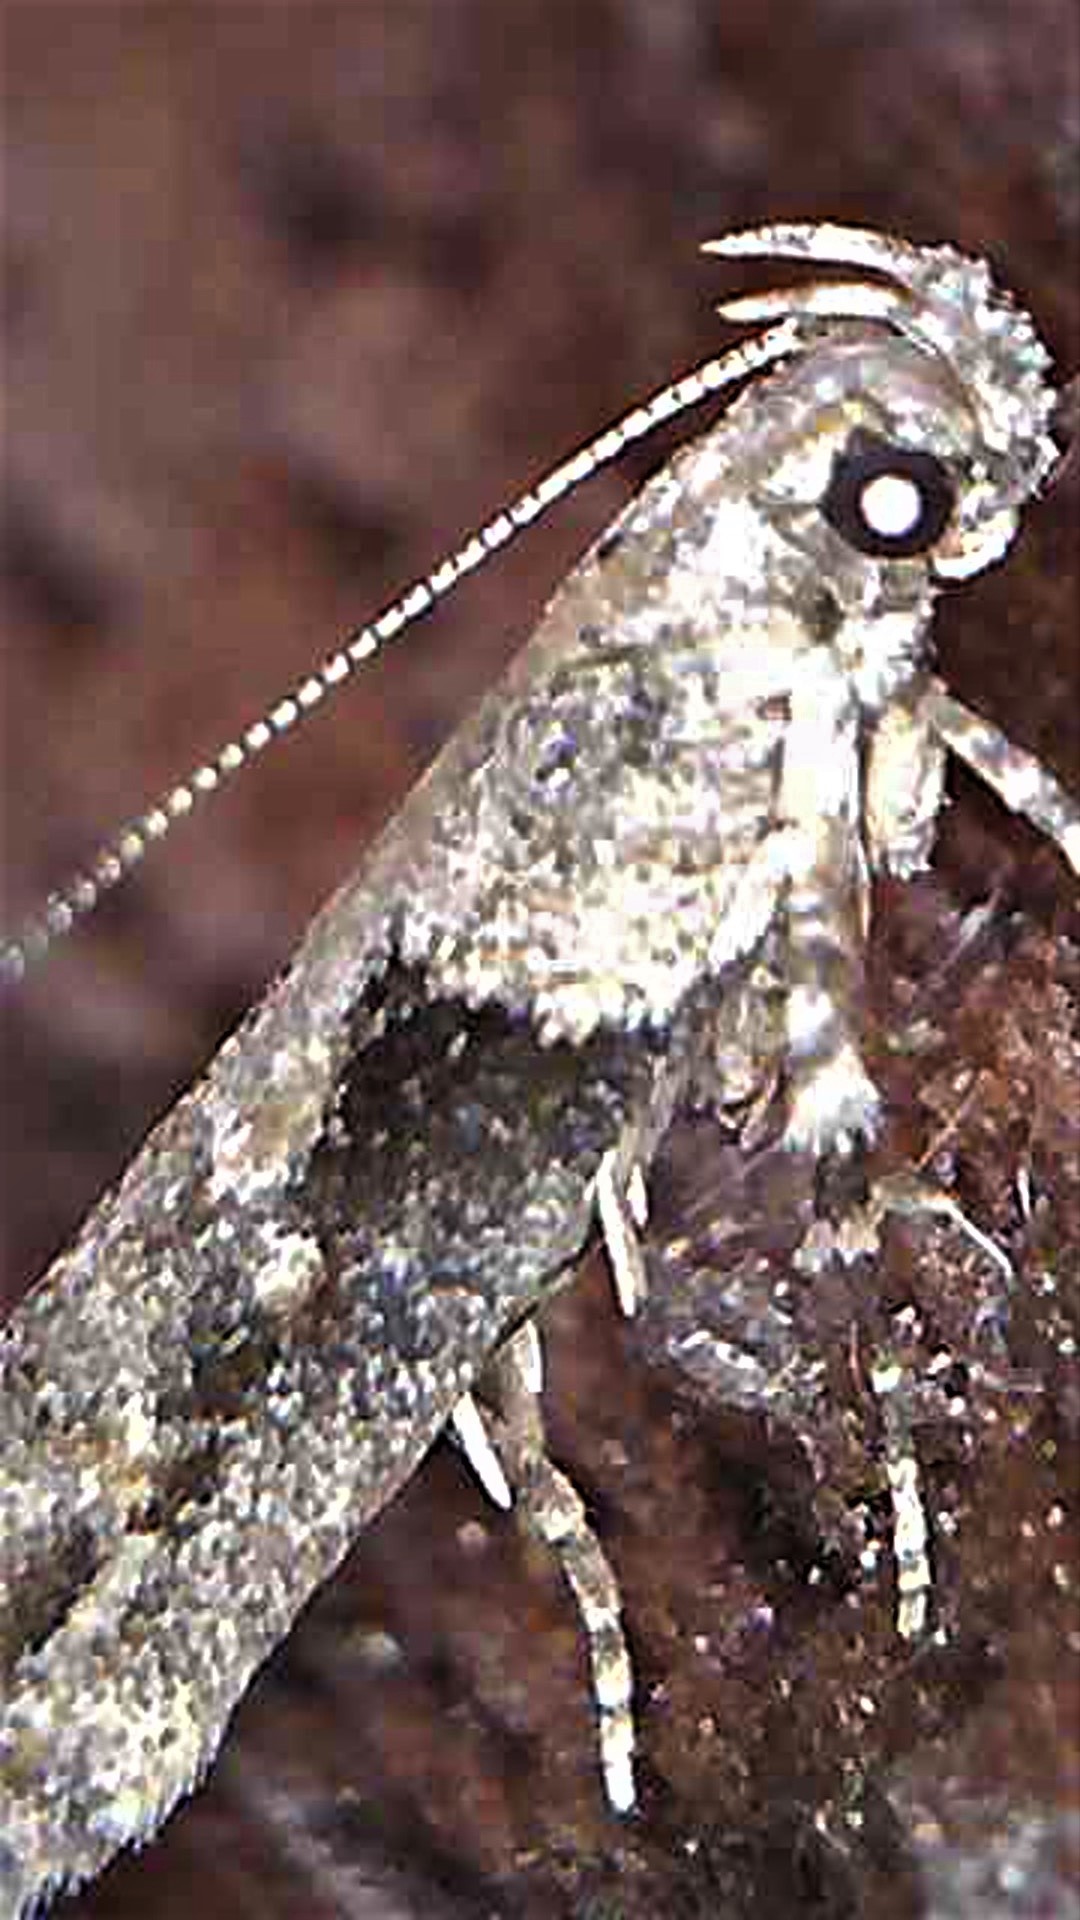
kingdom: Animalia
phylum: Arthropoda
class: Insecta
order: Lepidoptera
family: Gelechiidae
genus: Symmetrischema
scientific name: Symmetrischema tangolias
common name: Moth
